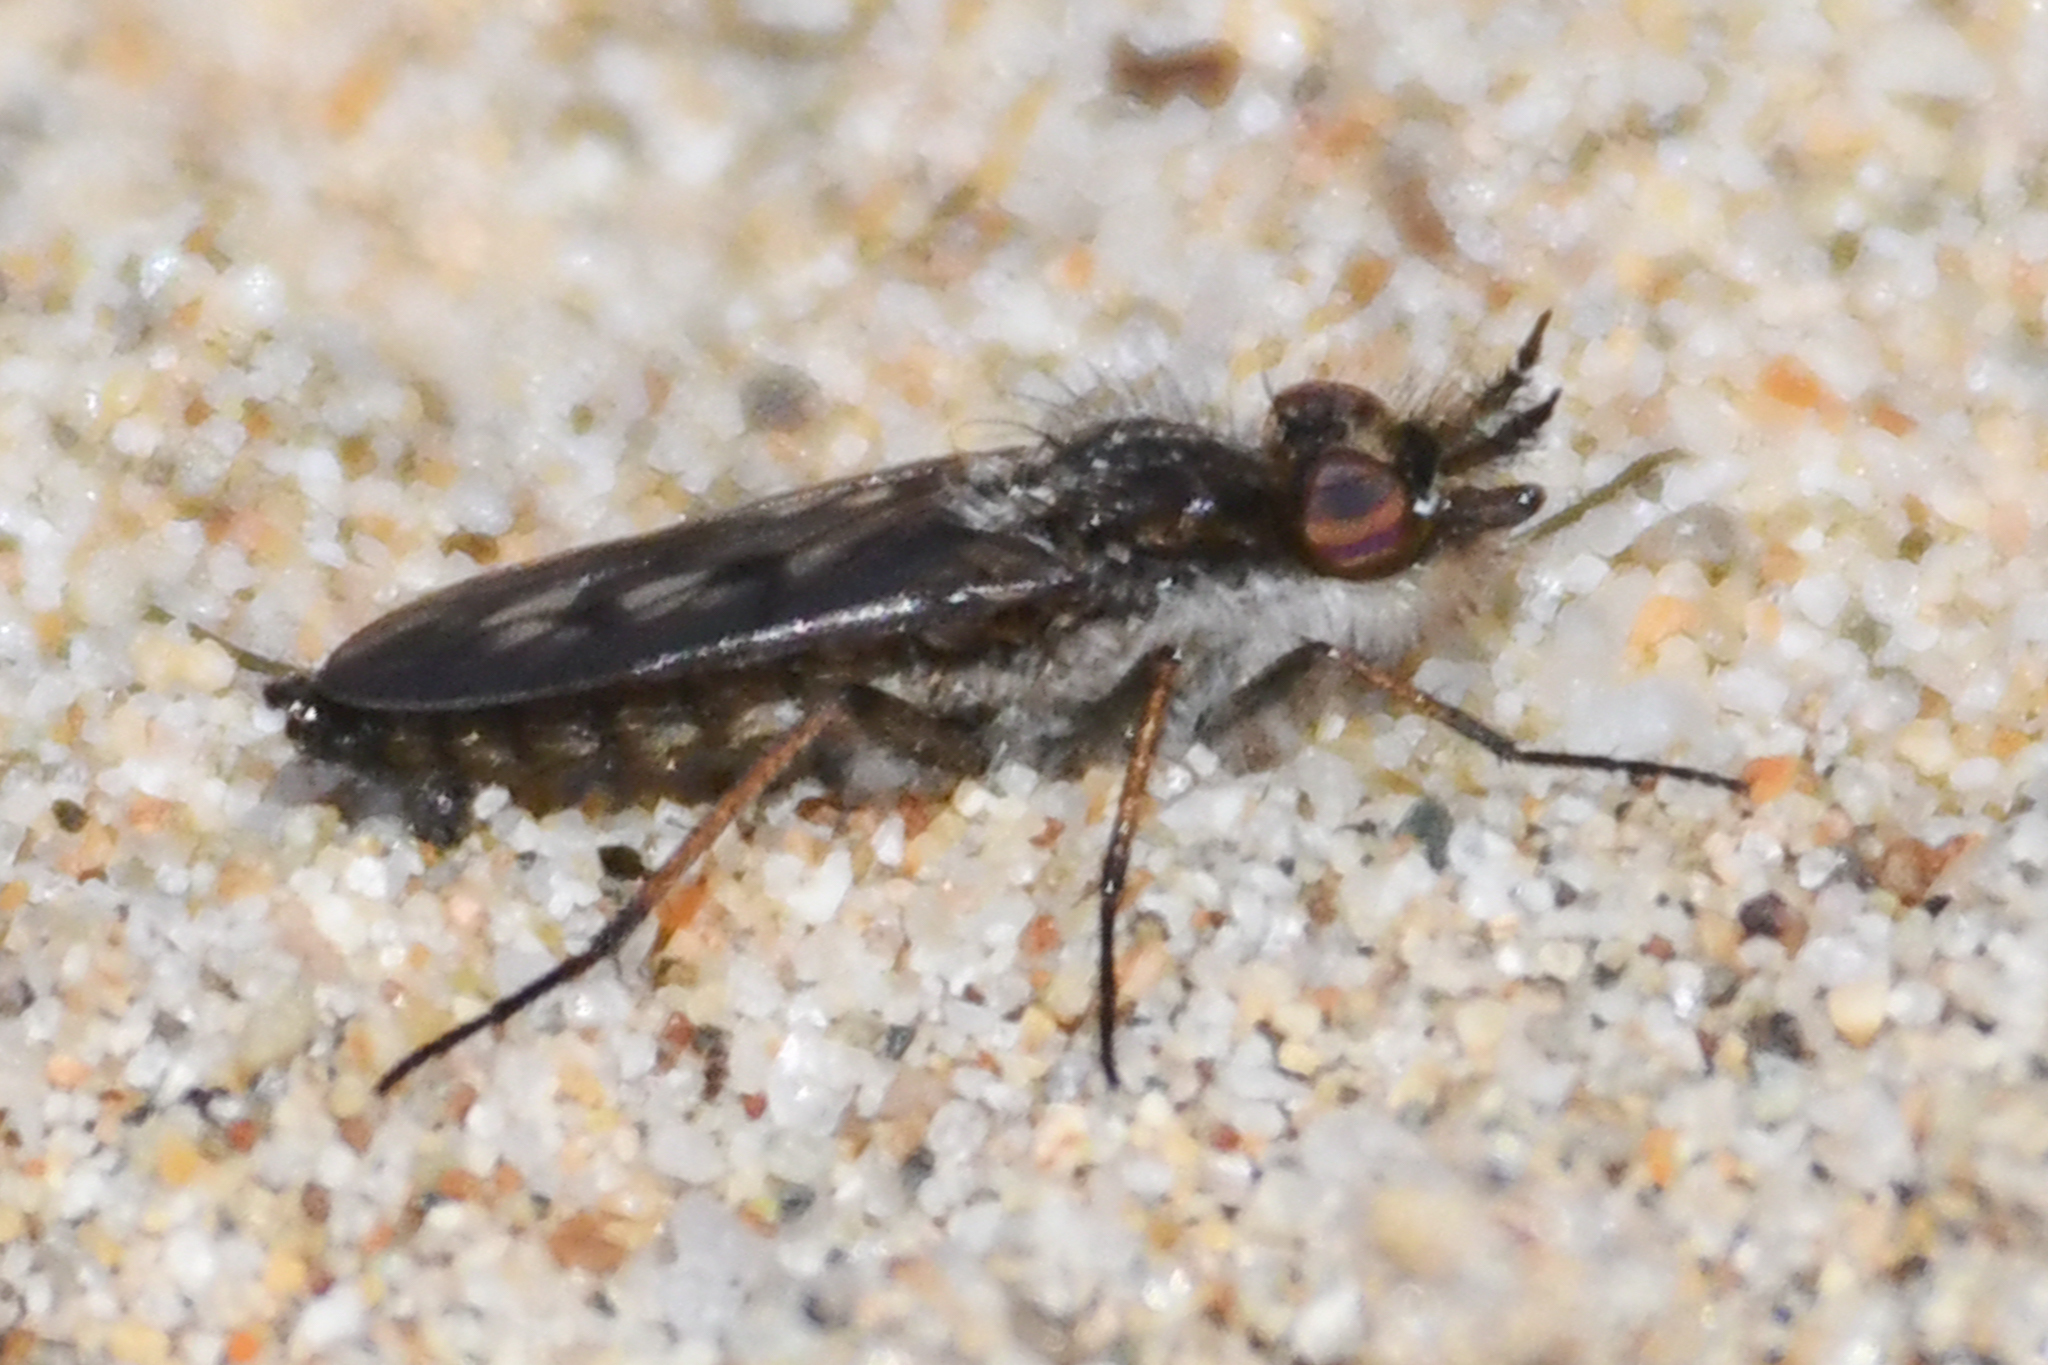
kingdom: Animalia
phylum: Arthropoda
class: Insecta
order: Diptera
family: Therevidae
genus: Nebritus
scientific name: Nebritus powelli
